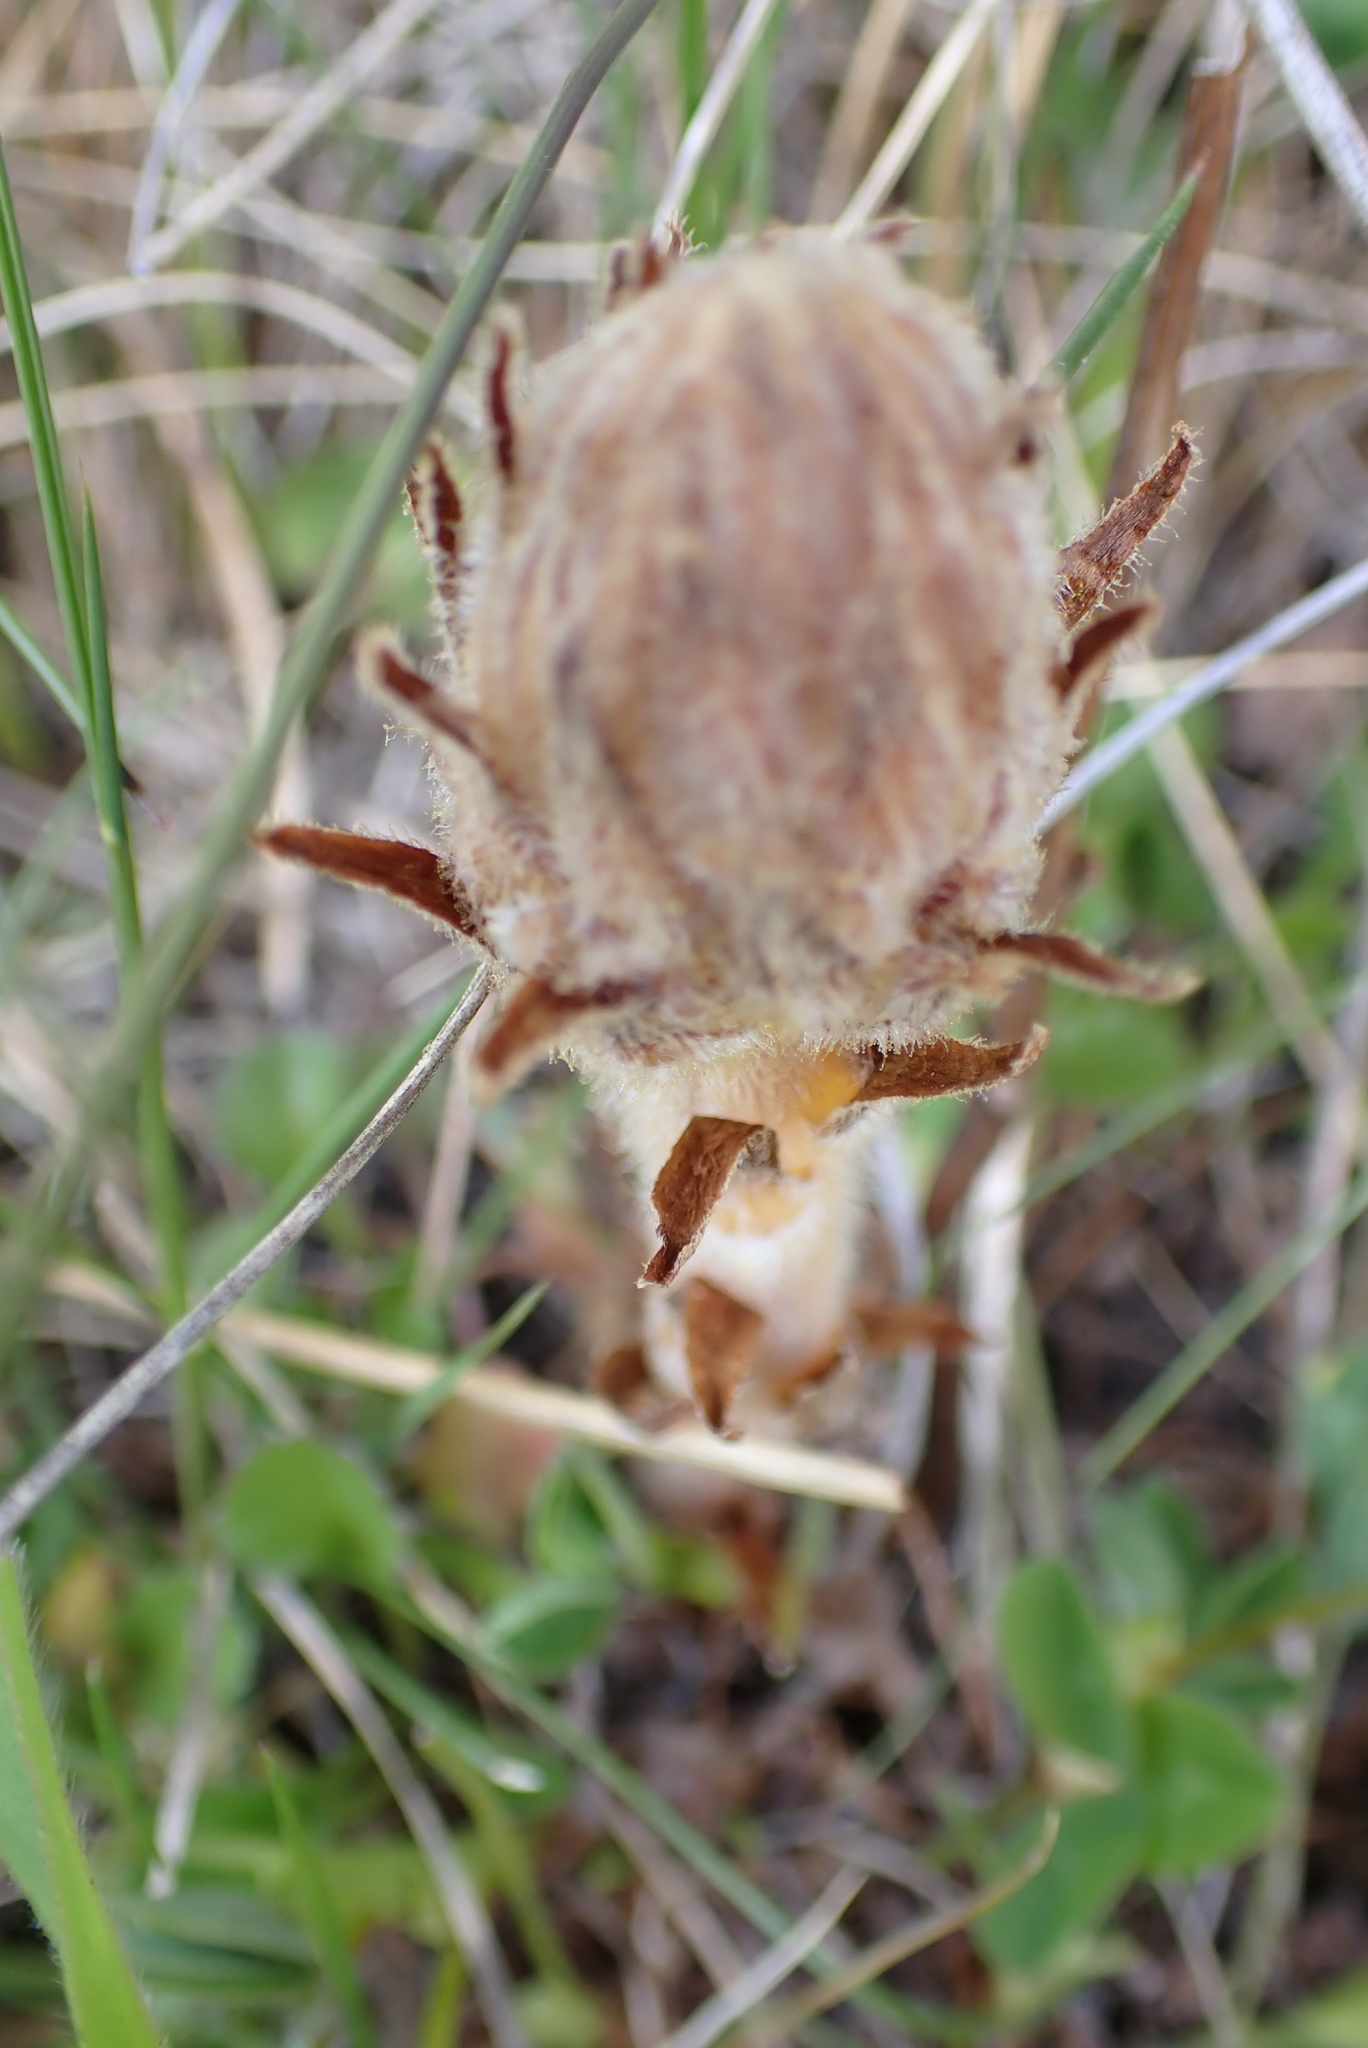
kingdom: Plantae
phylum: Tracheophyta
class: Magnoliopsida
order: Lamiales
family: Orobanchaceae
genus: Orobanche
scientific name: Orobanche minor
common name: Common broomrape
